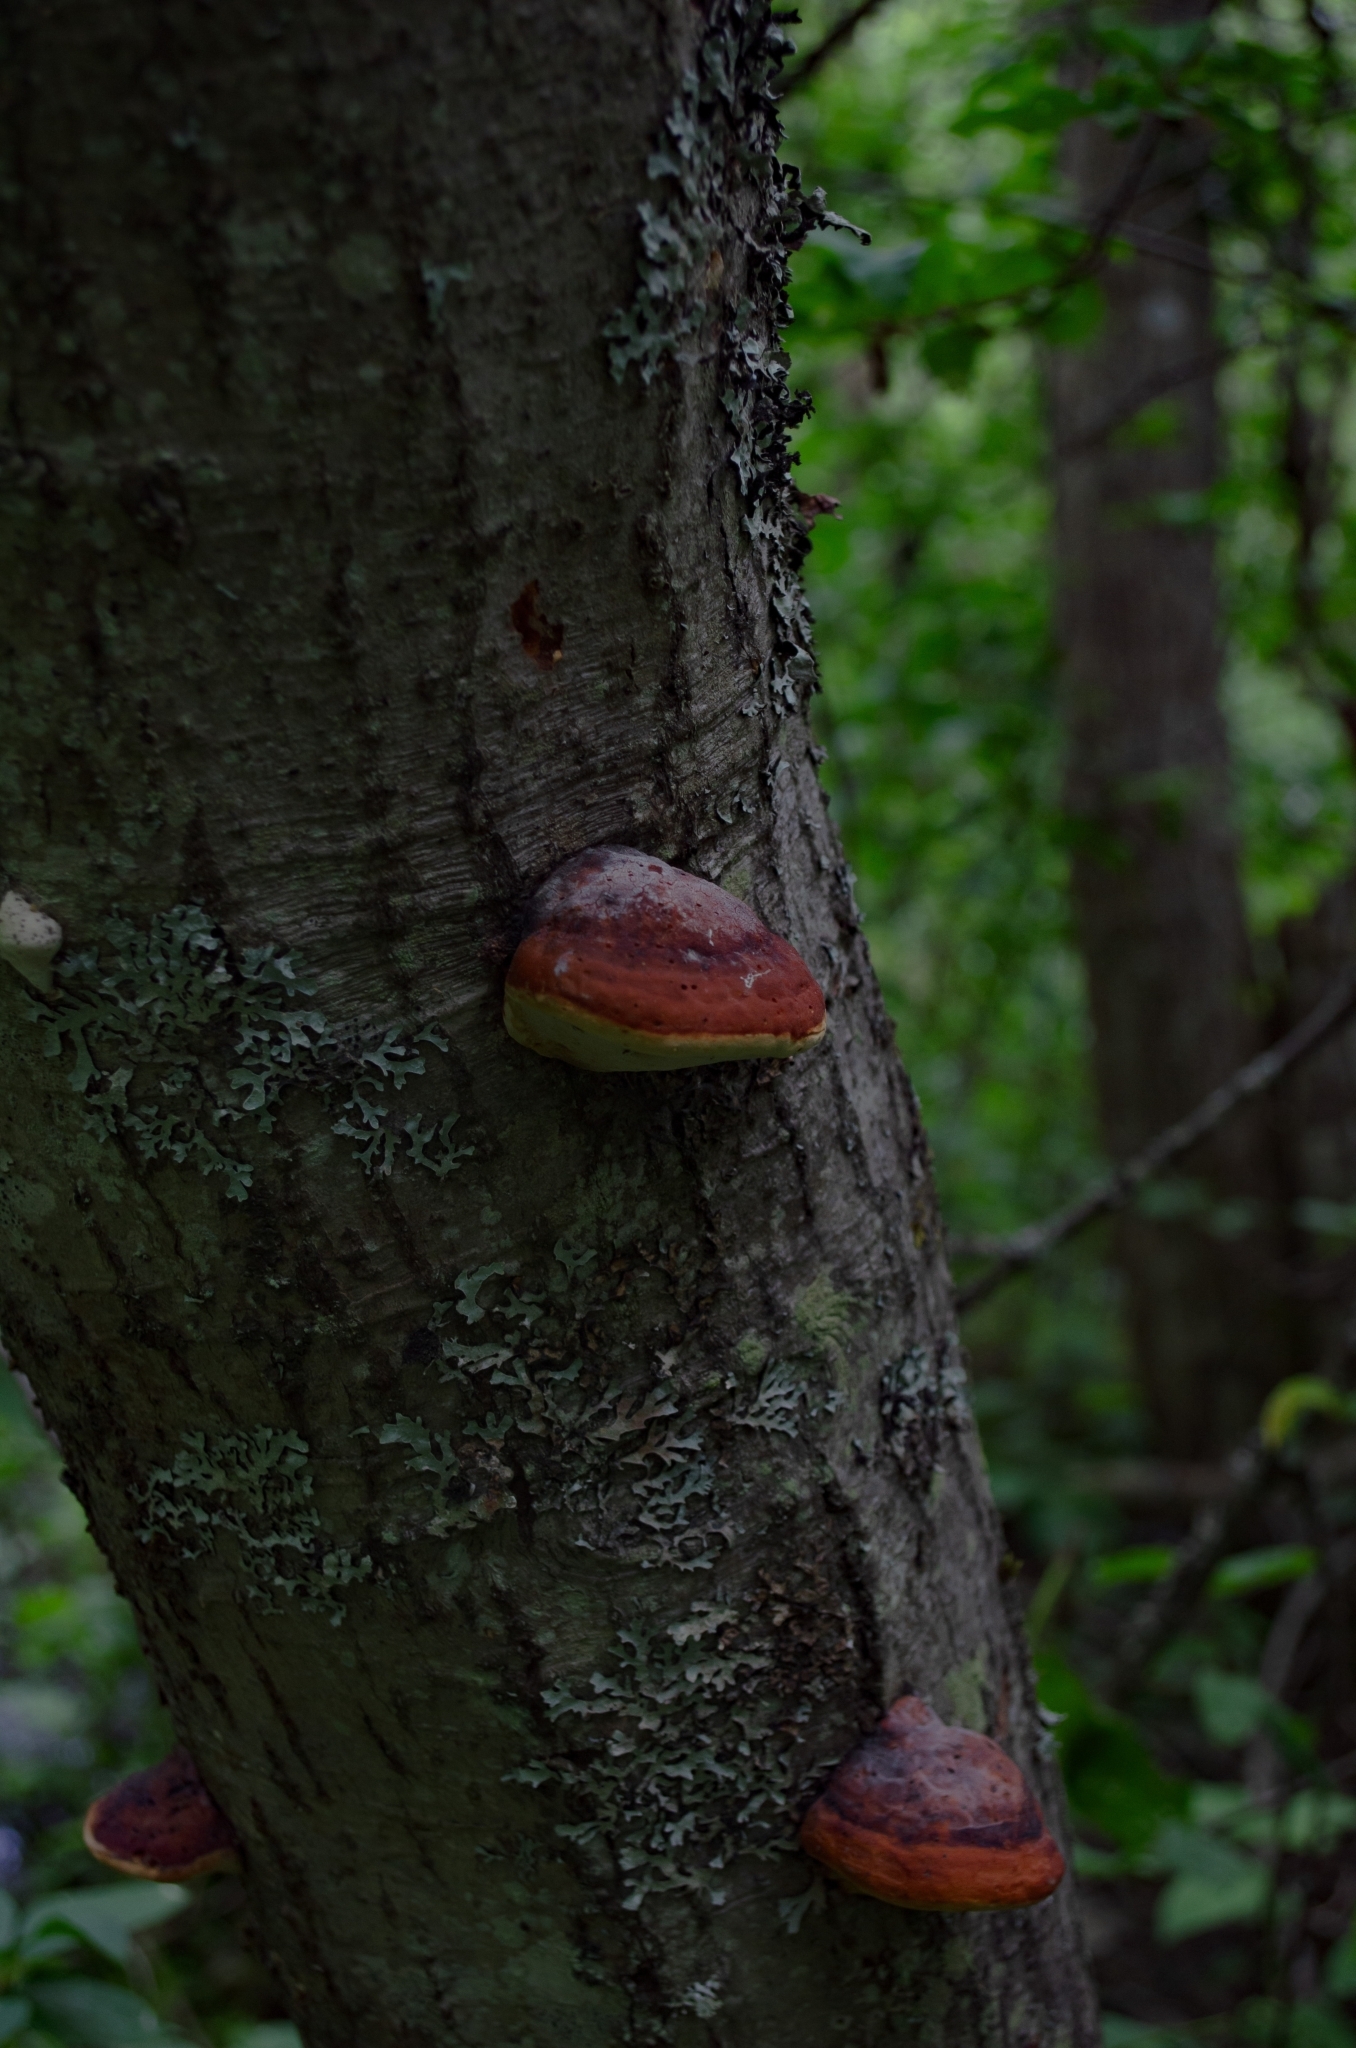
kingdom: Fungi
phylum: Basidiomycota
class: Agaricomycetes
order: Polyporales
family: Fomitopsidaceae
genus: Fomitopsis
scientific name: Fomitopsis pinicola
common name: Red-belted bracket
